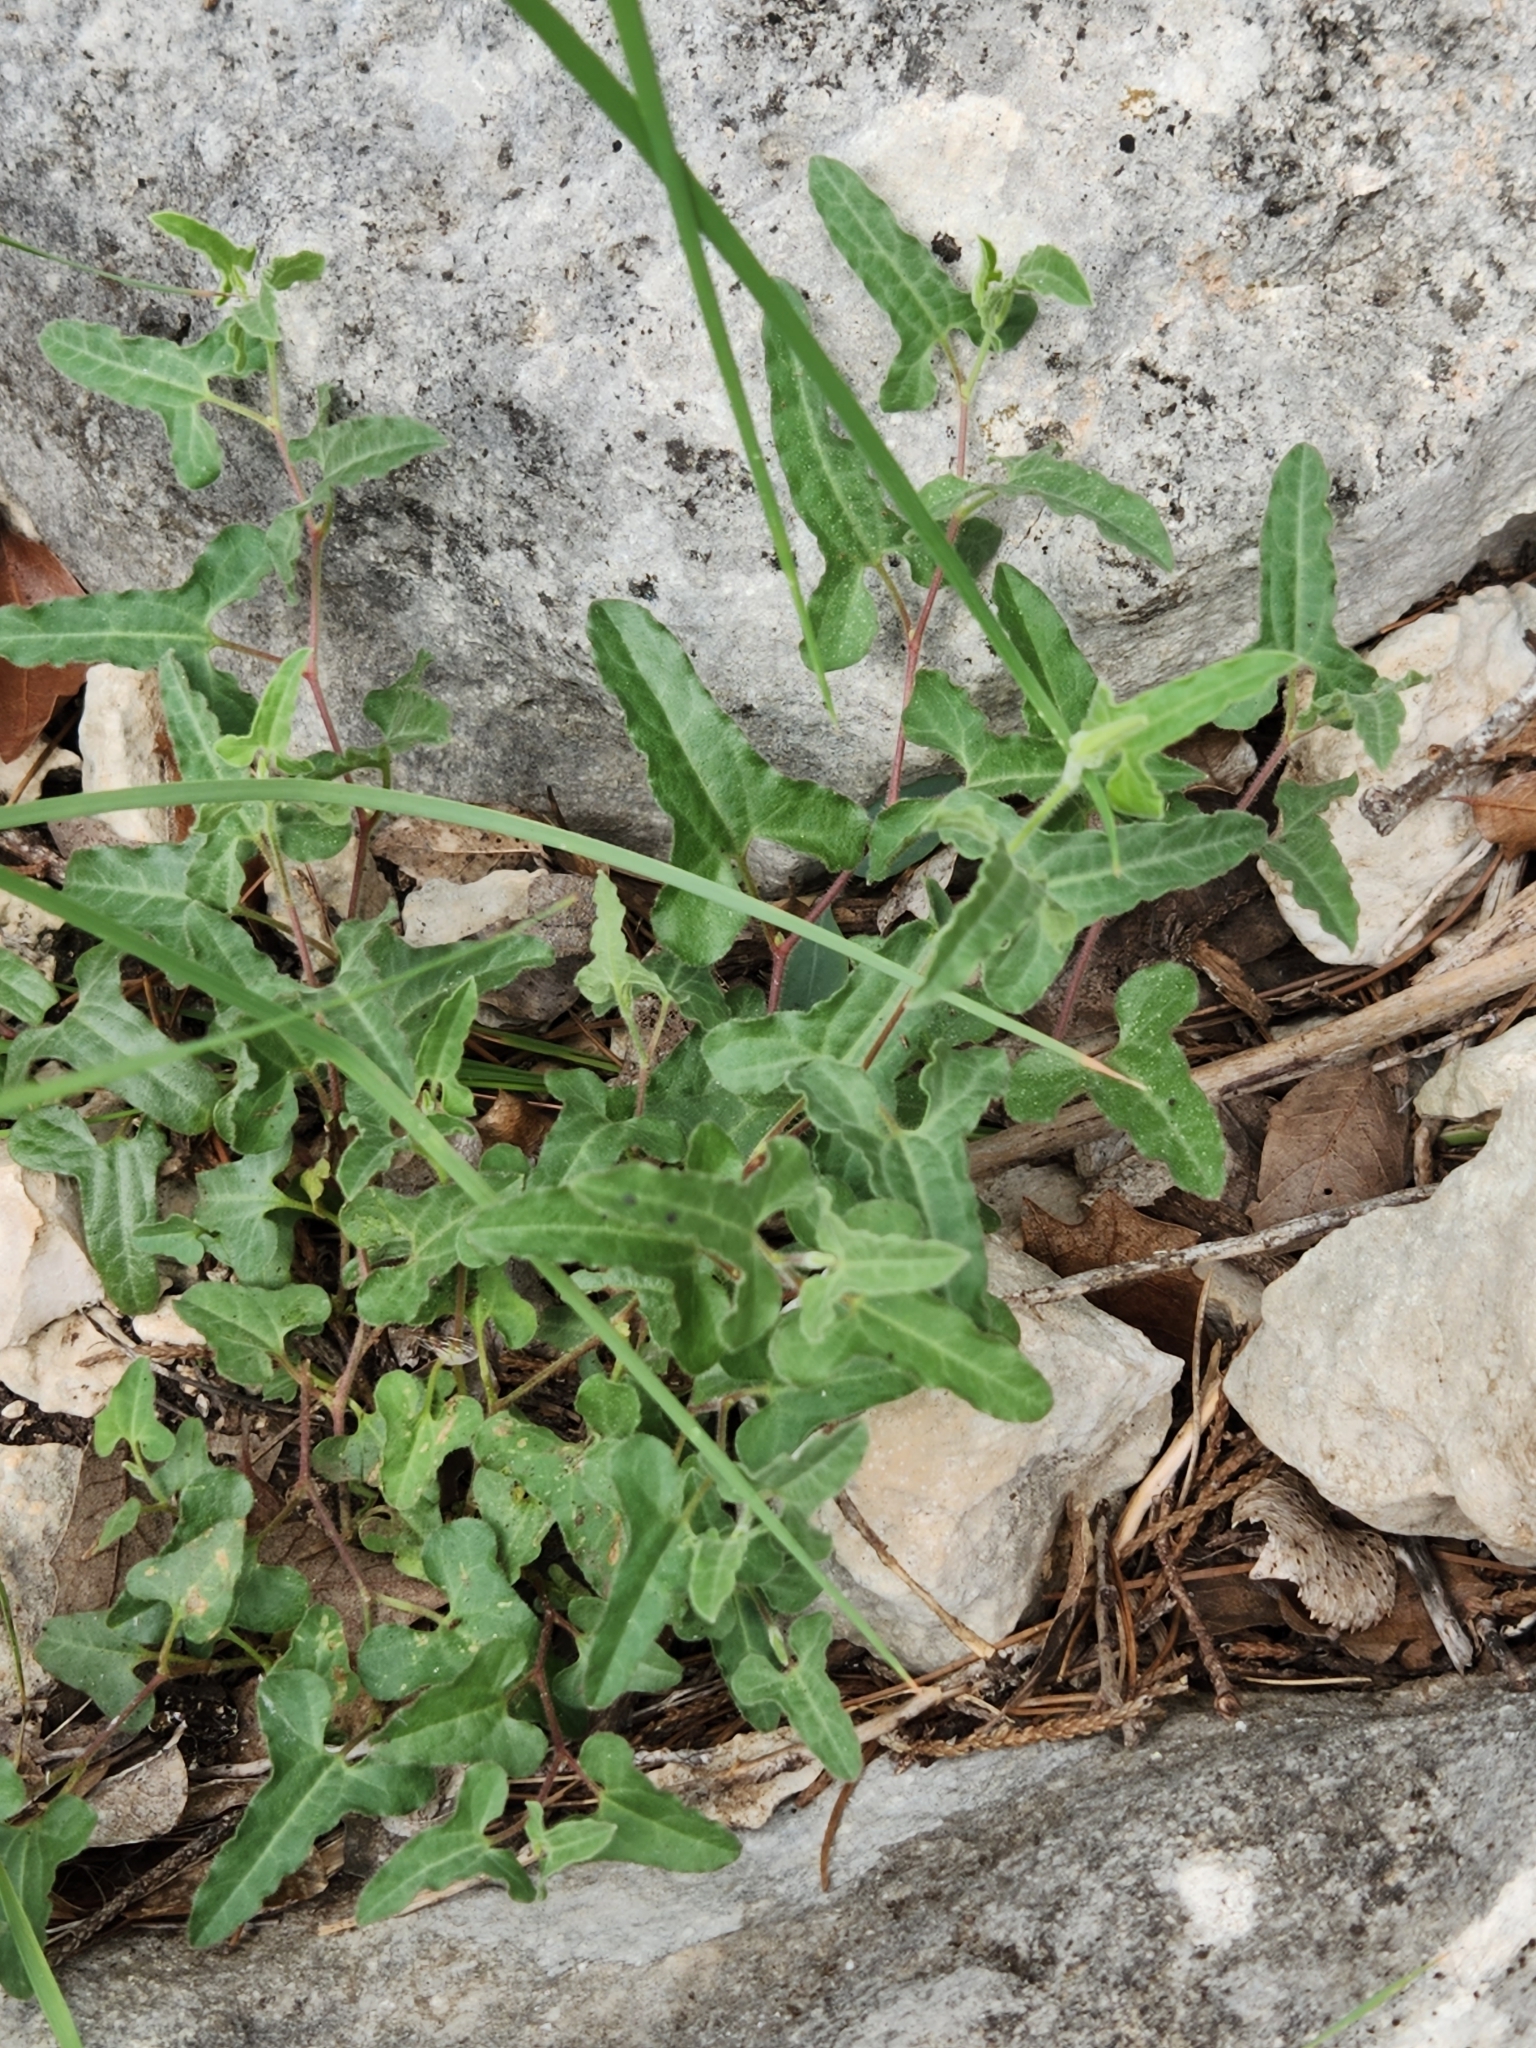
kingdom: Plantae
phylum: Tracheophyta
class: Magnoliopsida
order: Piperales
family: Aristolochiaceae
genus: Aristolochia
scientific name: Aristolochia coryi
